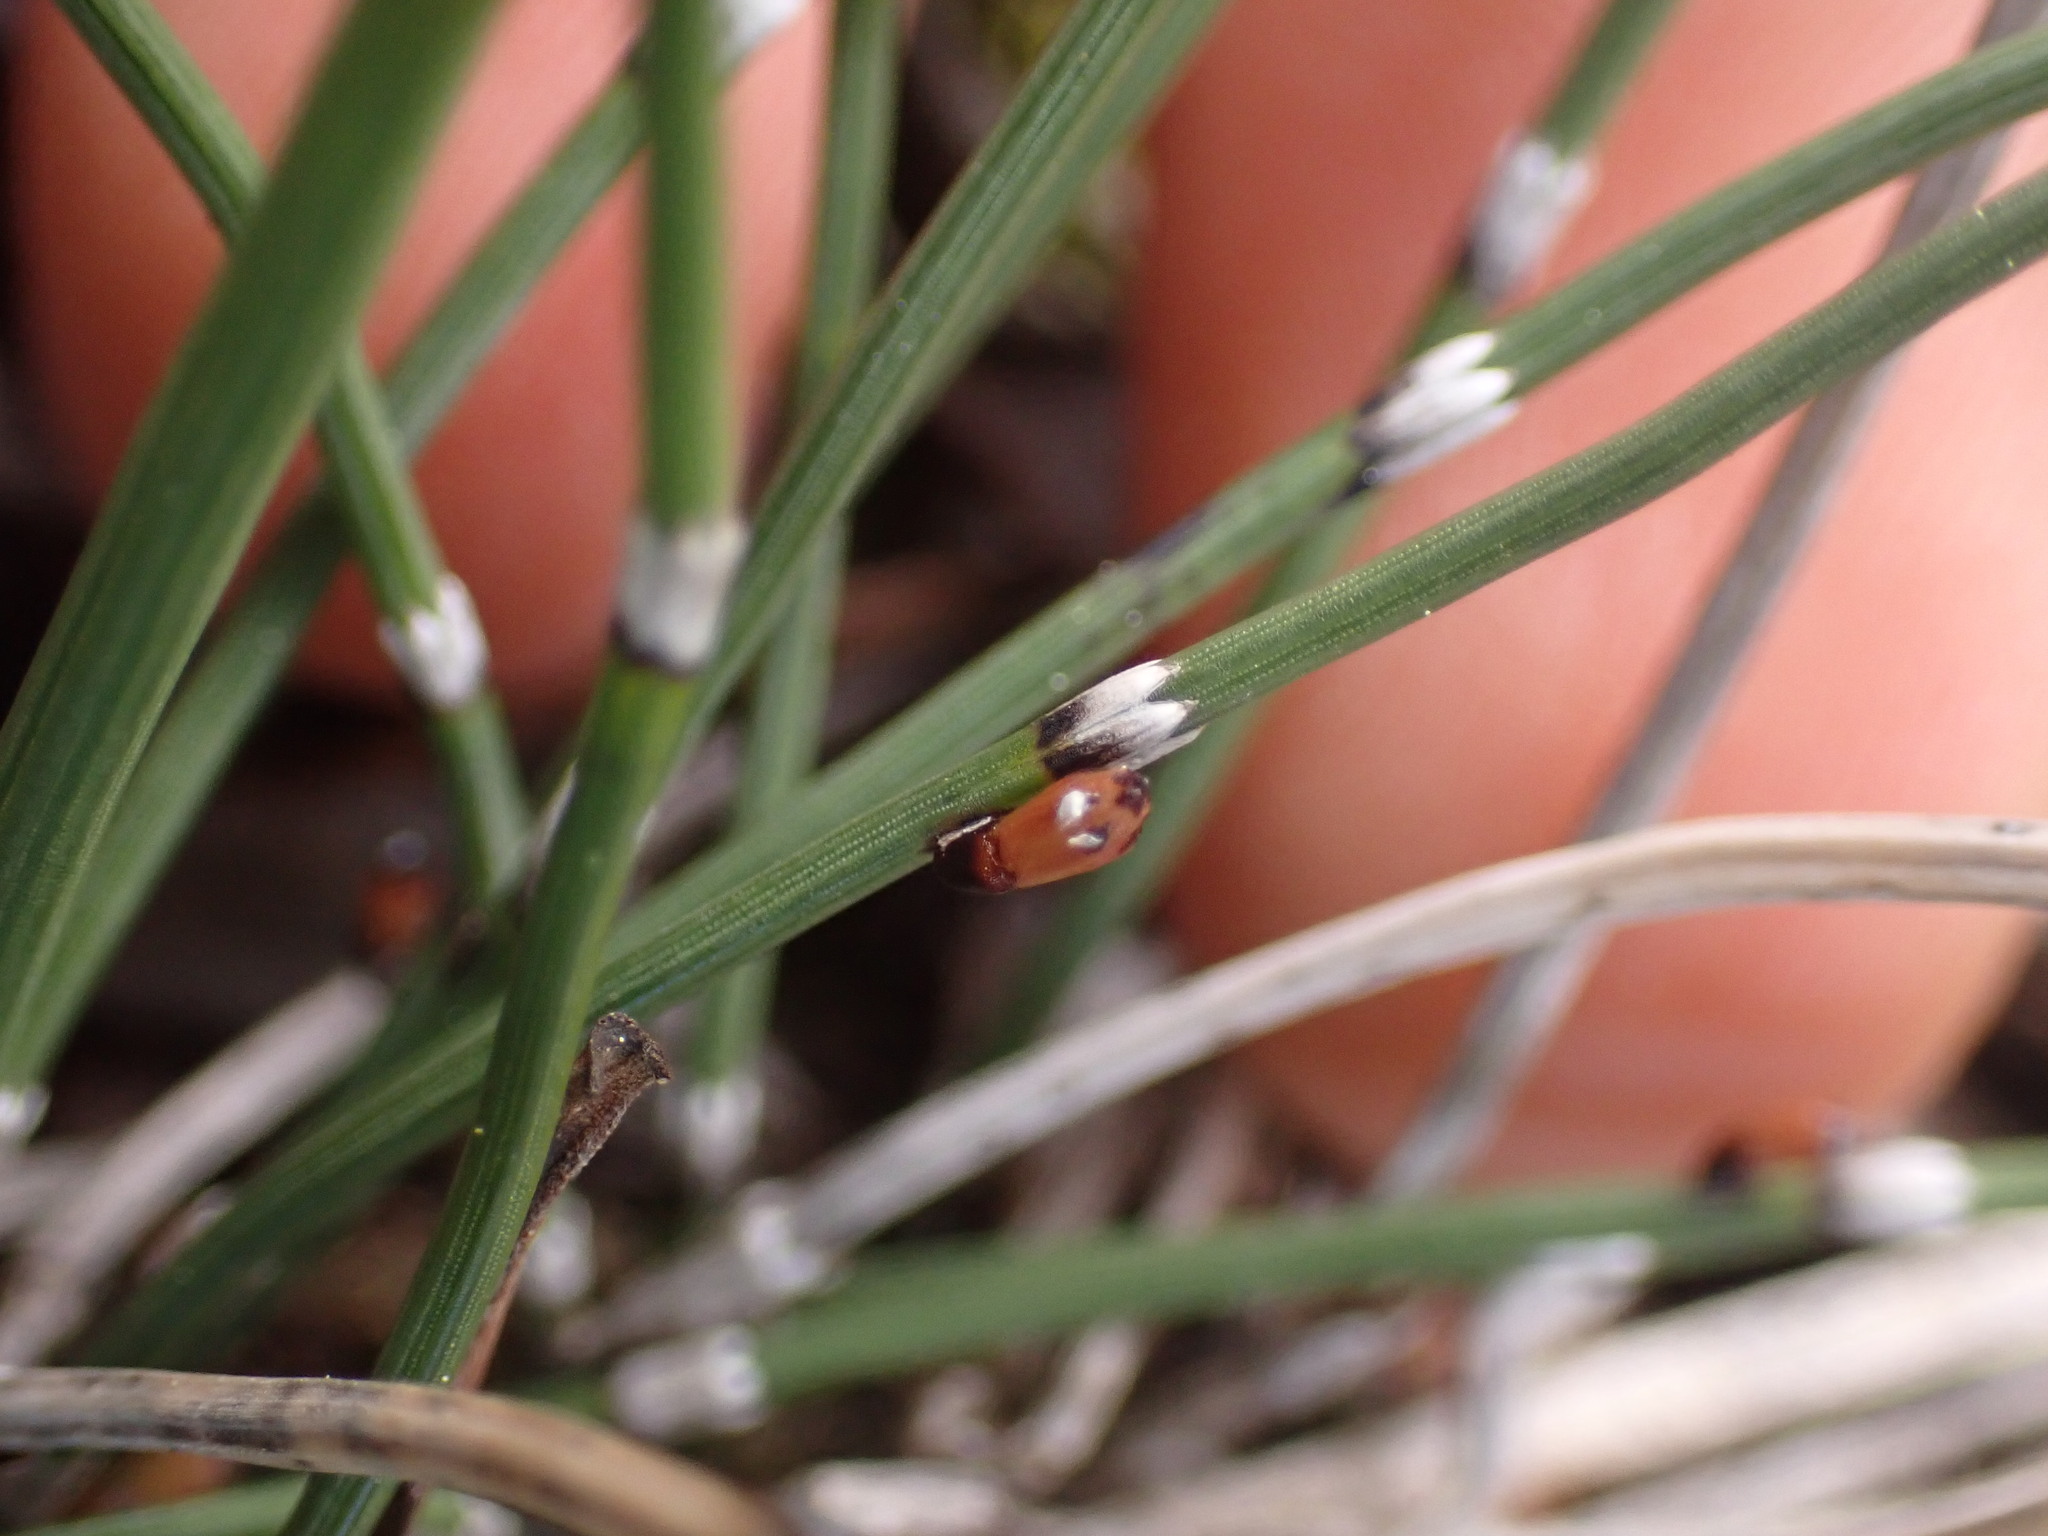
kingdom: Plantae
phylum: Tracheophyta
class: Polypodiopsida
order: Equisetales
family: Equisetaceae
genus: Equisetum
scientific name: Equisetum ramosissimum
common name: Branched horsetail
